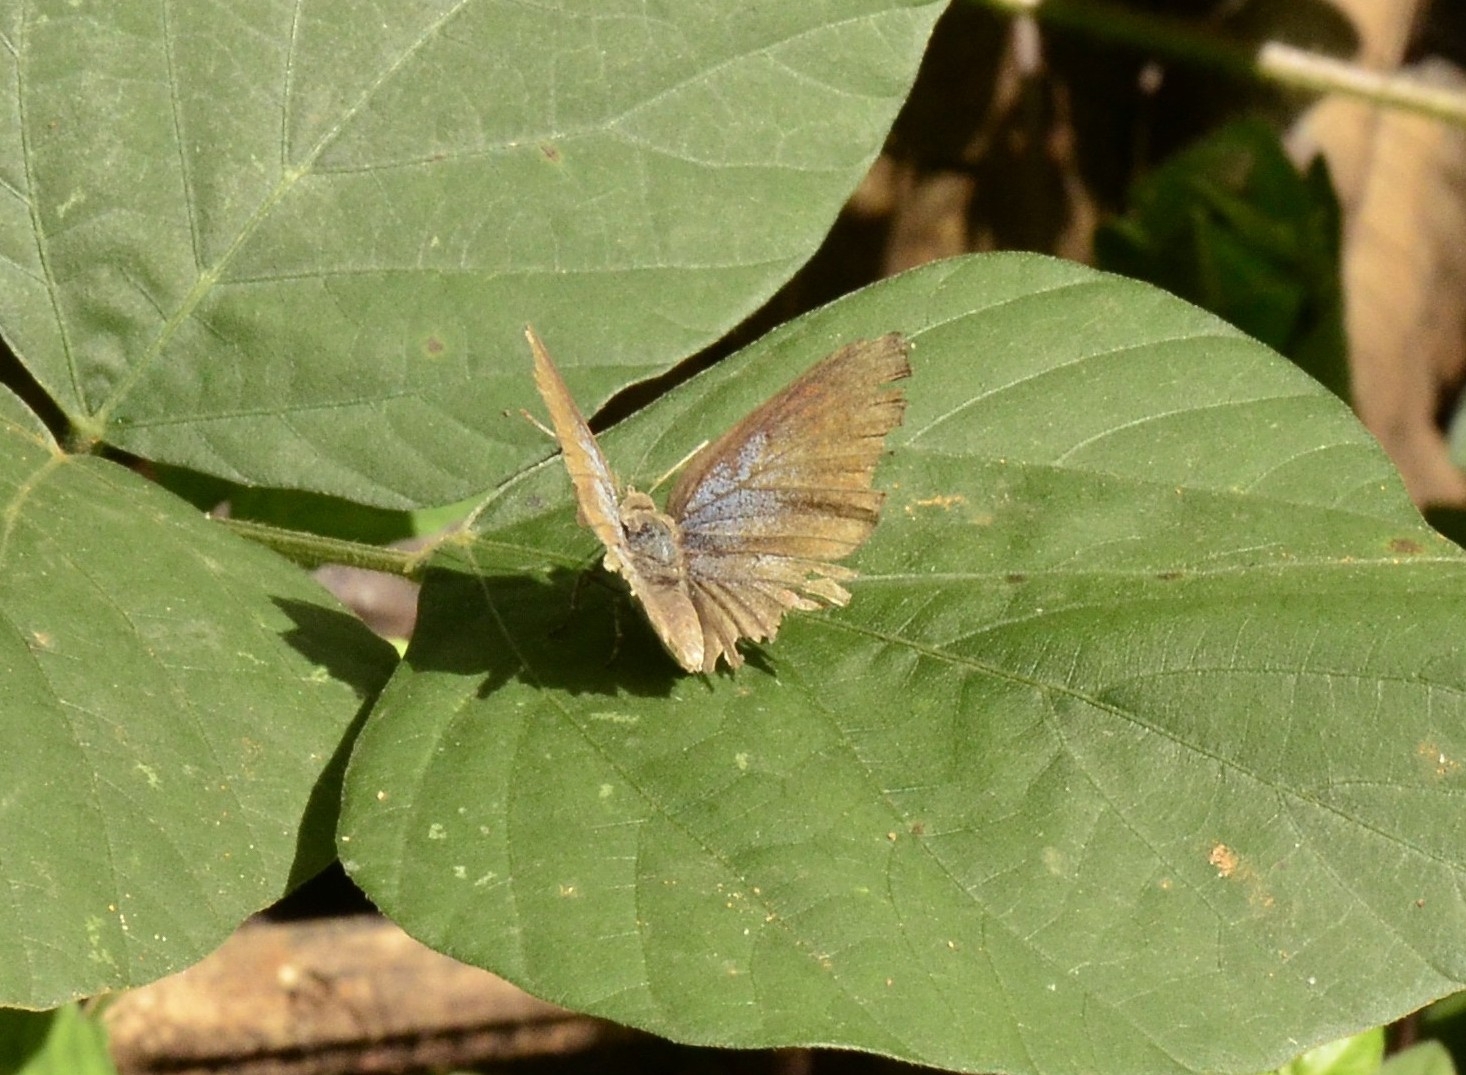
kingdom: Animalia
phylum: Arthropoda
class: Insecta
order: Lepidoptera
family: Lycaenidae
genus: Zesius
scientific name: Zesius chrysomallus
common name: Redspot
